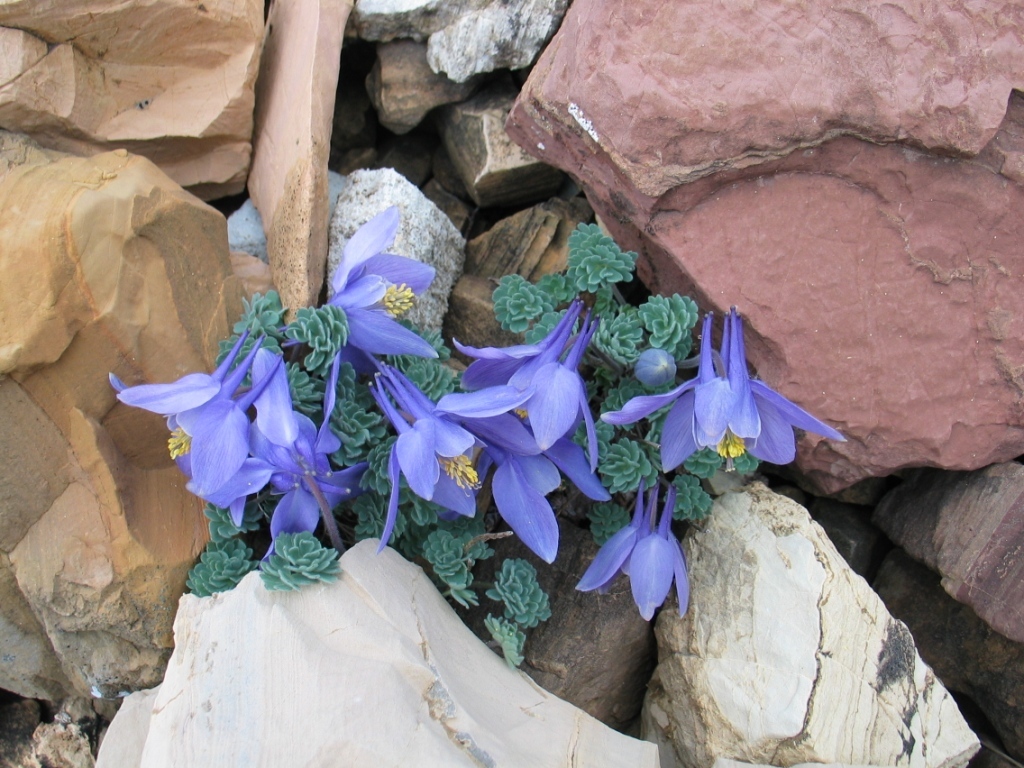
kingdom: Plantae
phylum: Tracheophyta
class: Magnoliopsida
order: Ranunculales
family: Ranunculaceae
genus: Aquilegia
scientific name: Aquilegia jonesii
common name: Jones' columbine
